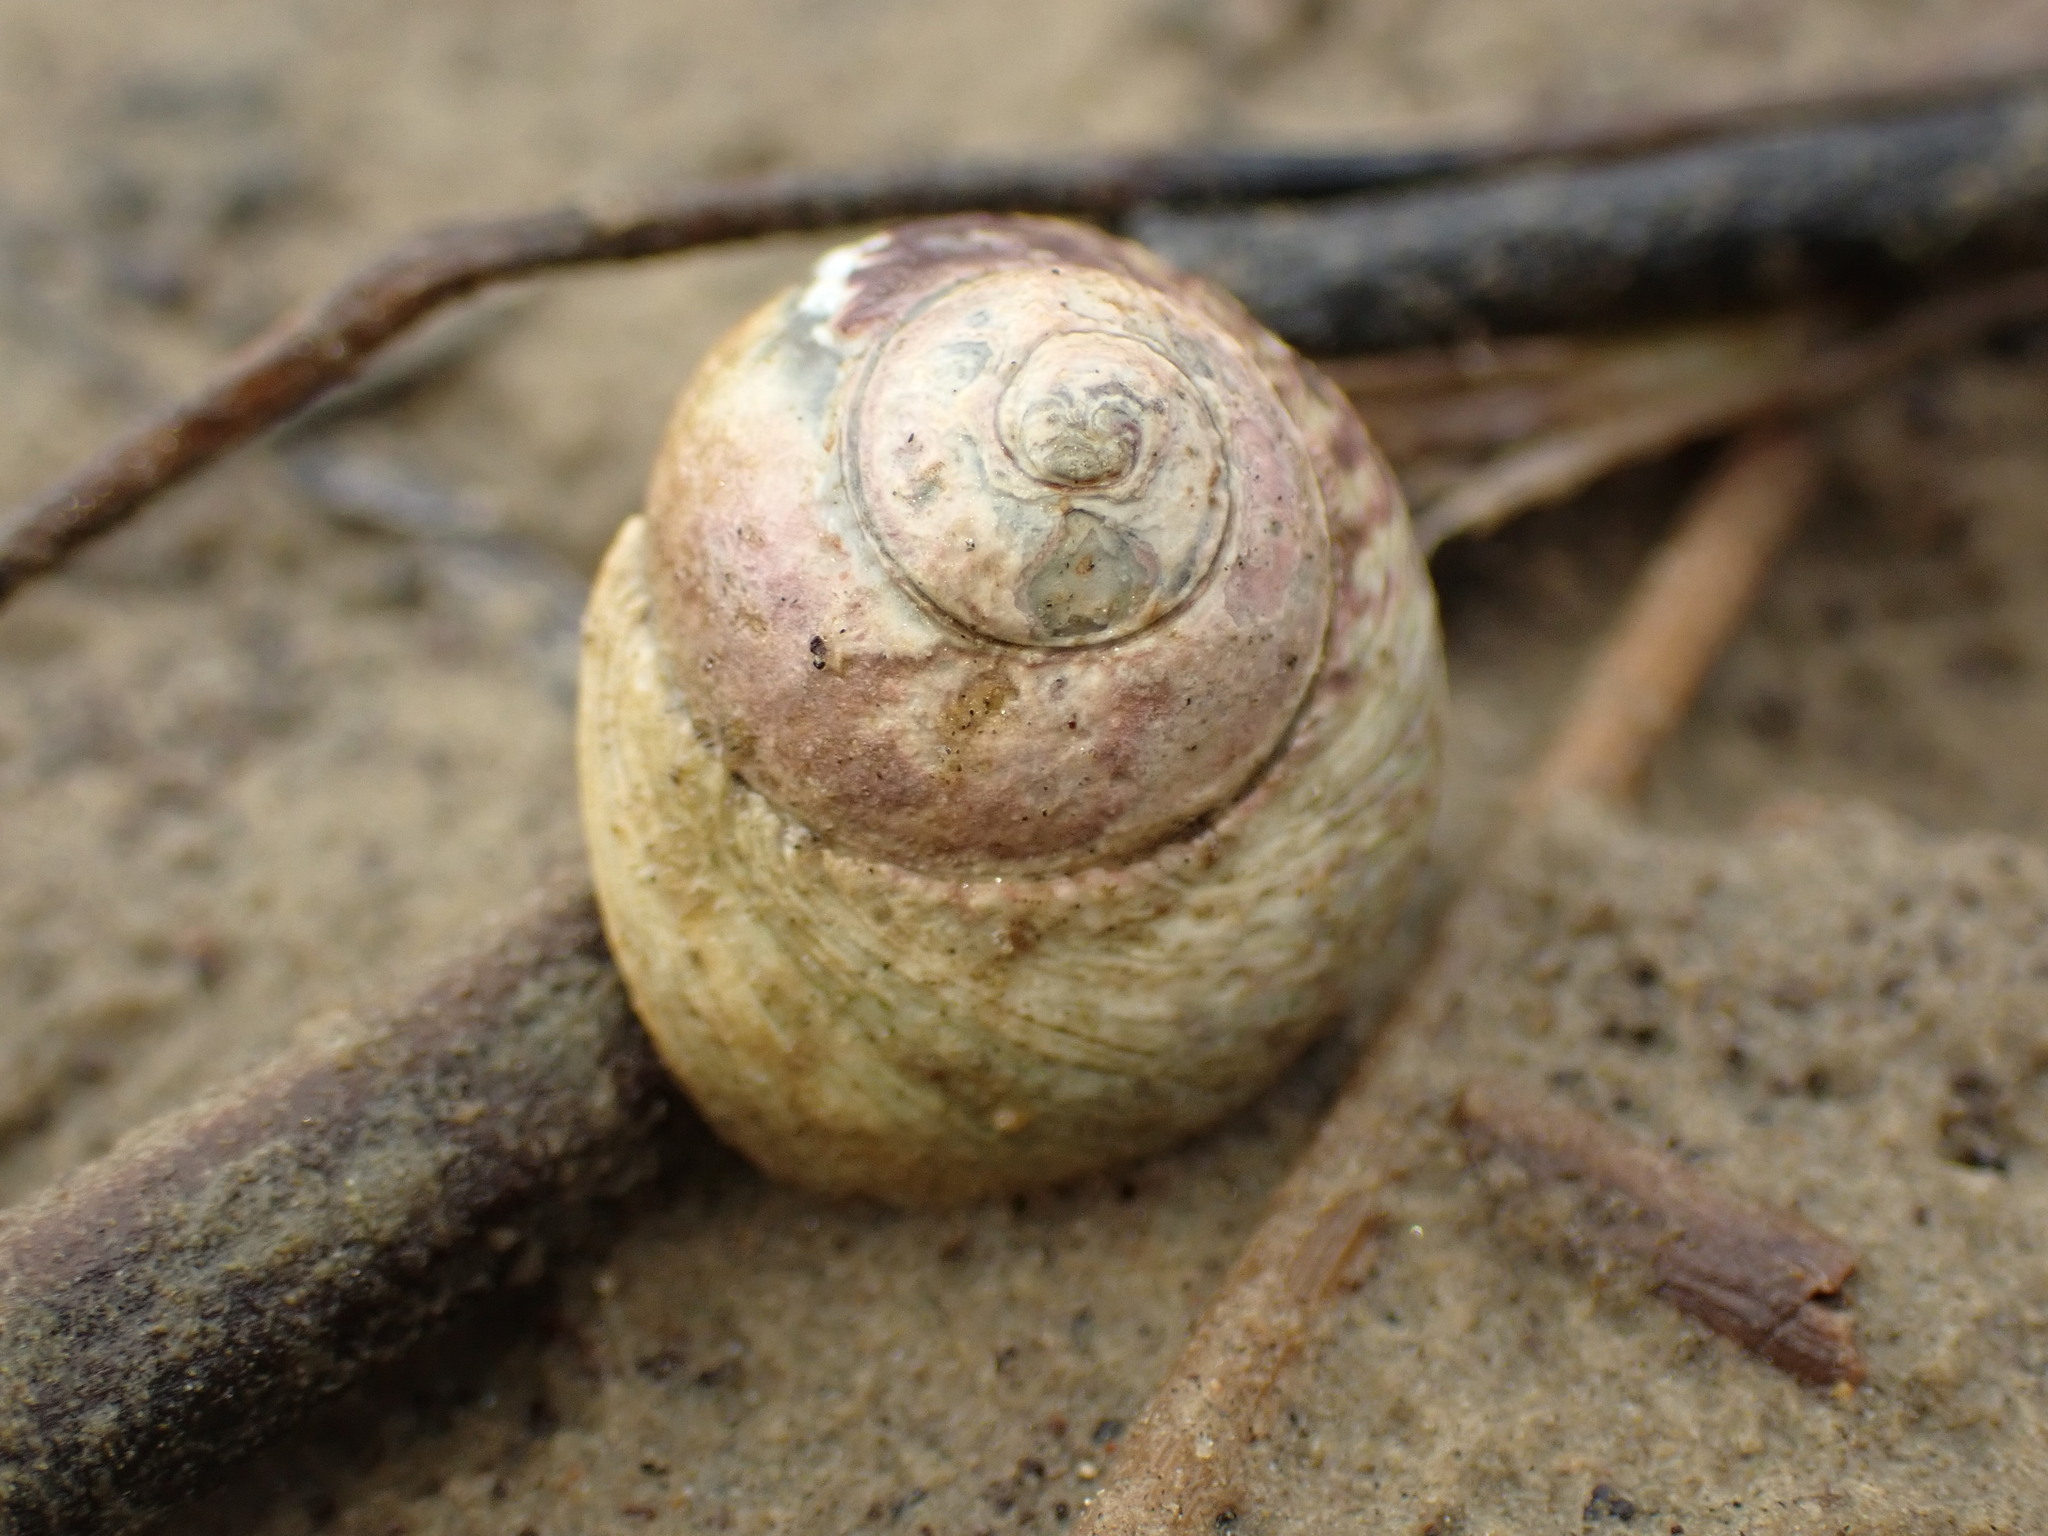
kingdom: Animalia
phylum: Mollusca
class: Gastropoda
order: Trochida
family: Trochidae
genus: Diloma
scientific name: Diloma subrostratum
